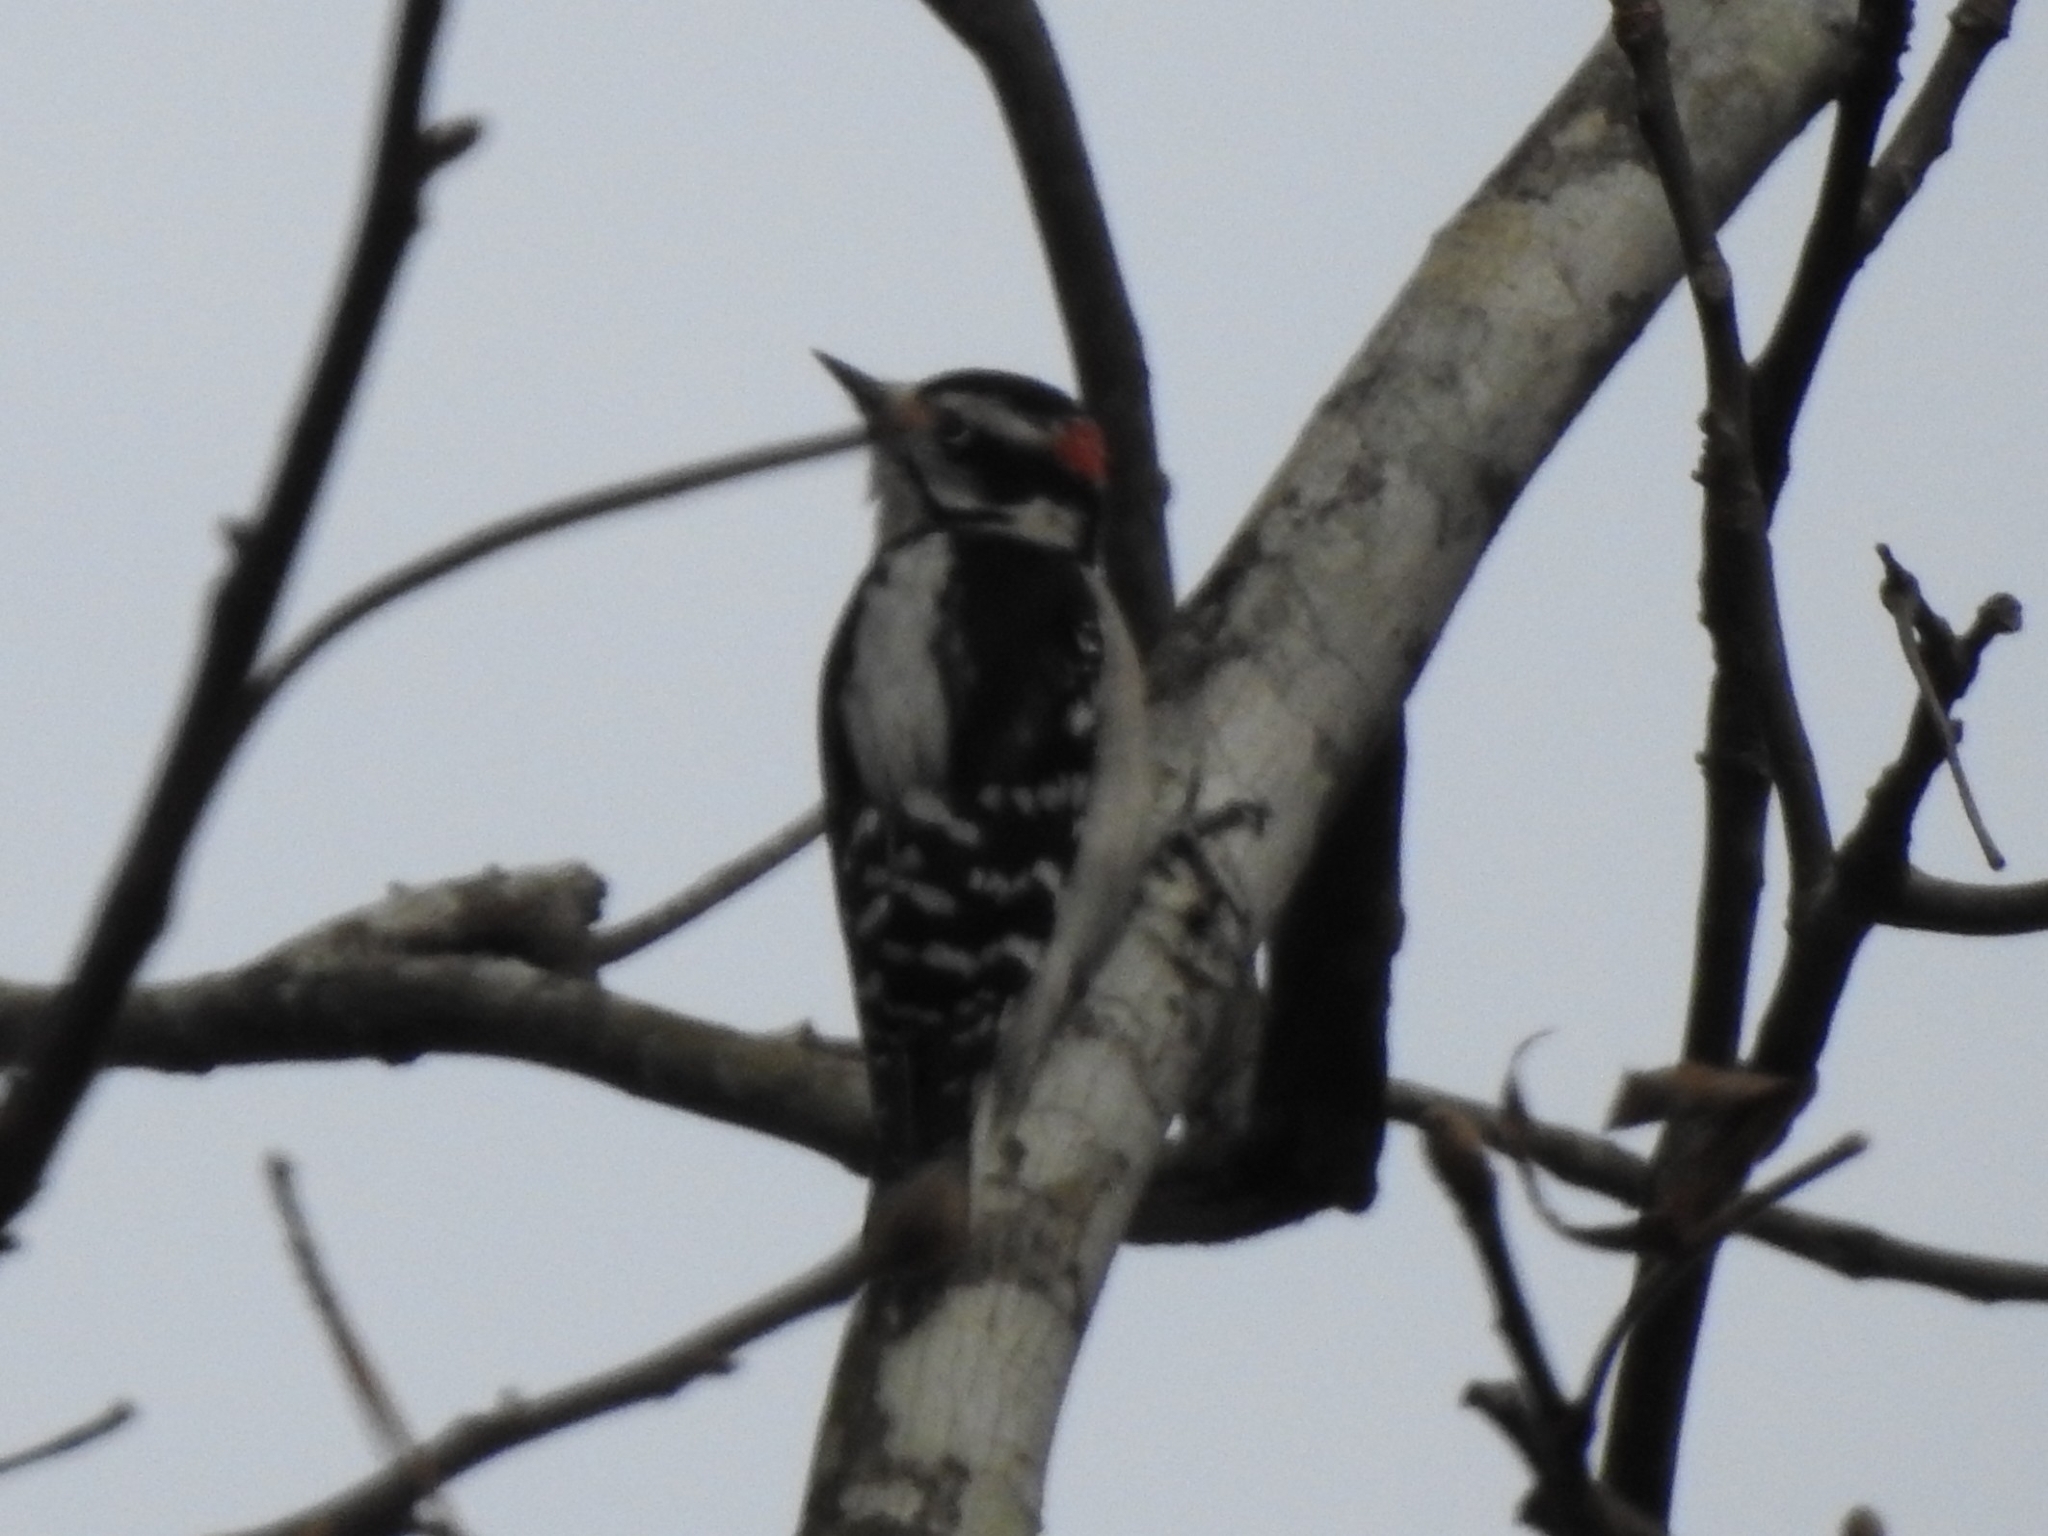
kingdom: Animalia
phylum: Chordata
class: Aves
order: Piciformes
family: Picidae
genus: Dryobates
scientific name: Dryobates pubescens
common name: Downy woodpecker
